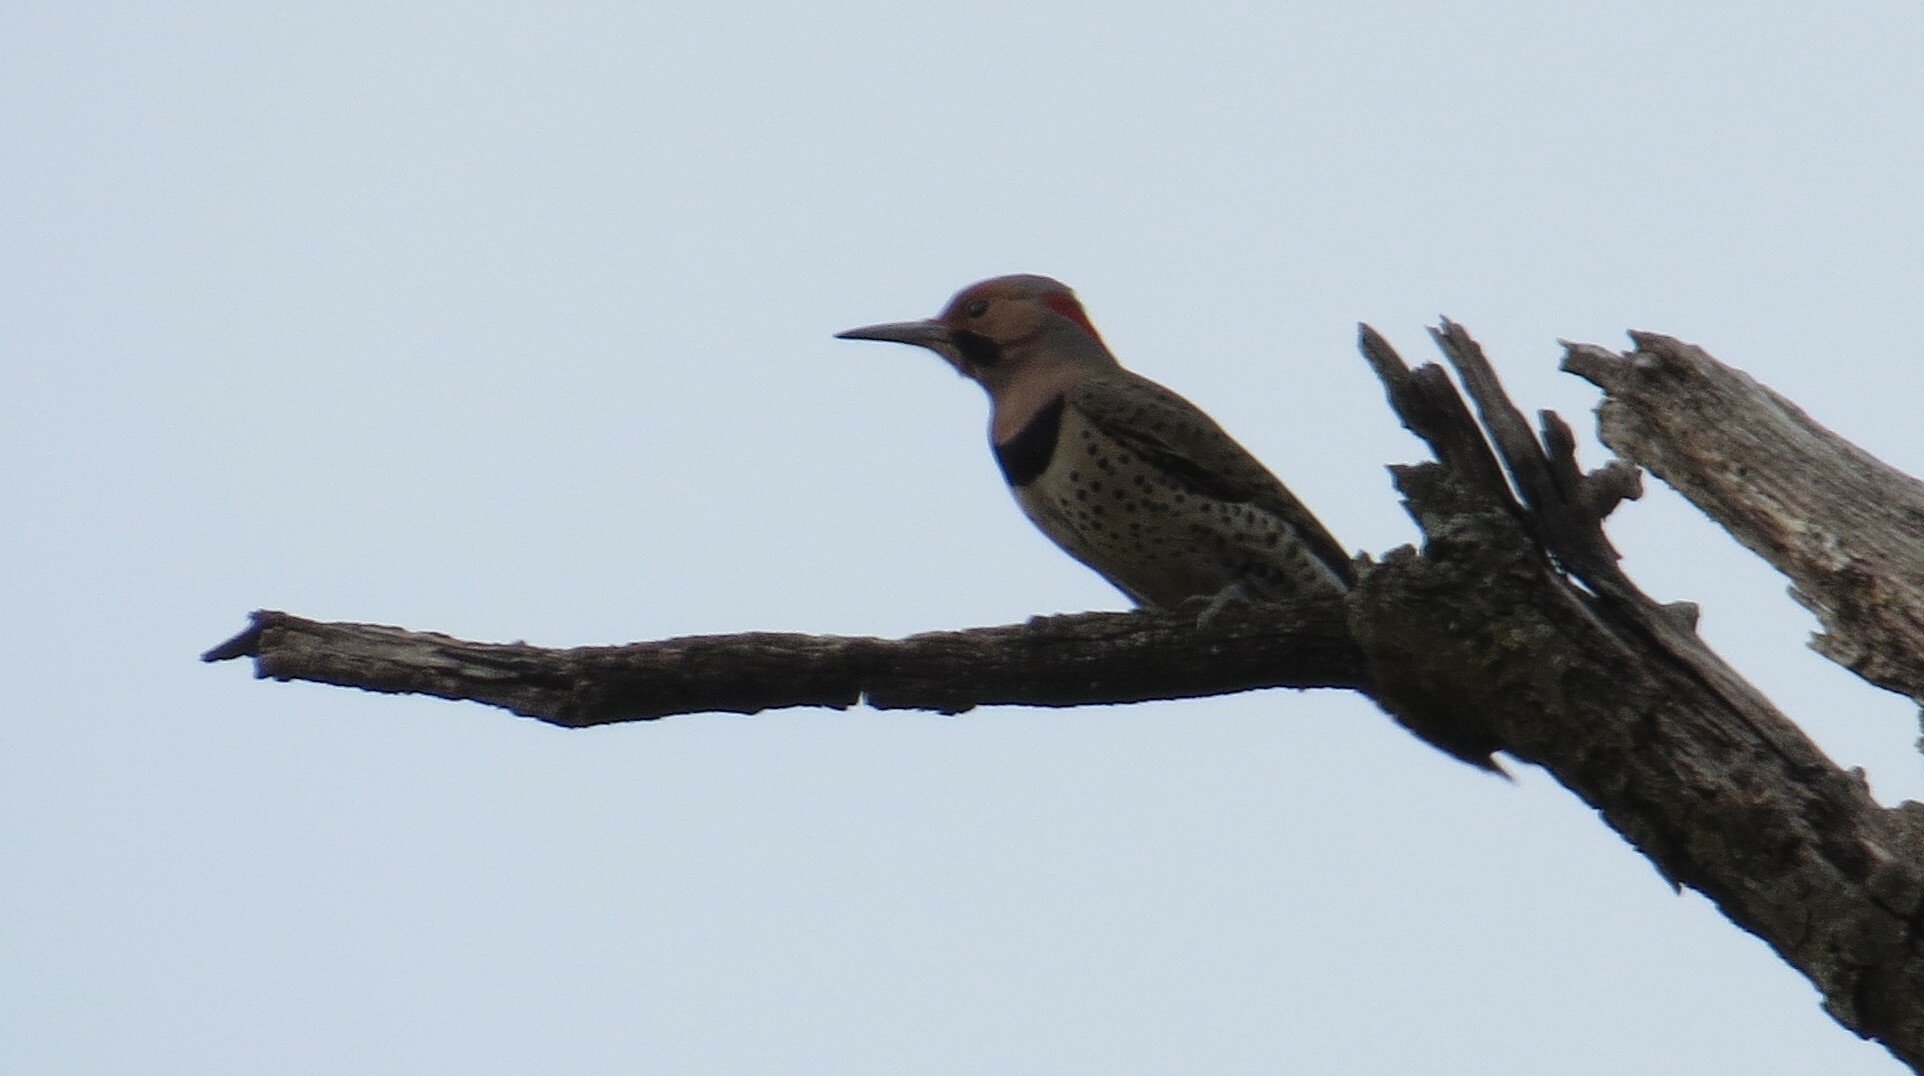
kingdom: Animalia
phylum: Chordata
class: Aves
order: Piciformes
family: Picidae
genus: Colaptes
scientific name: Colaptes auratus
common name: Northern flicker
